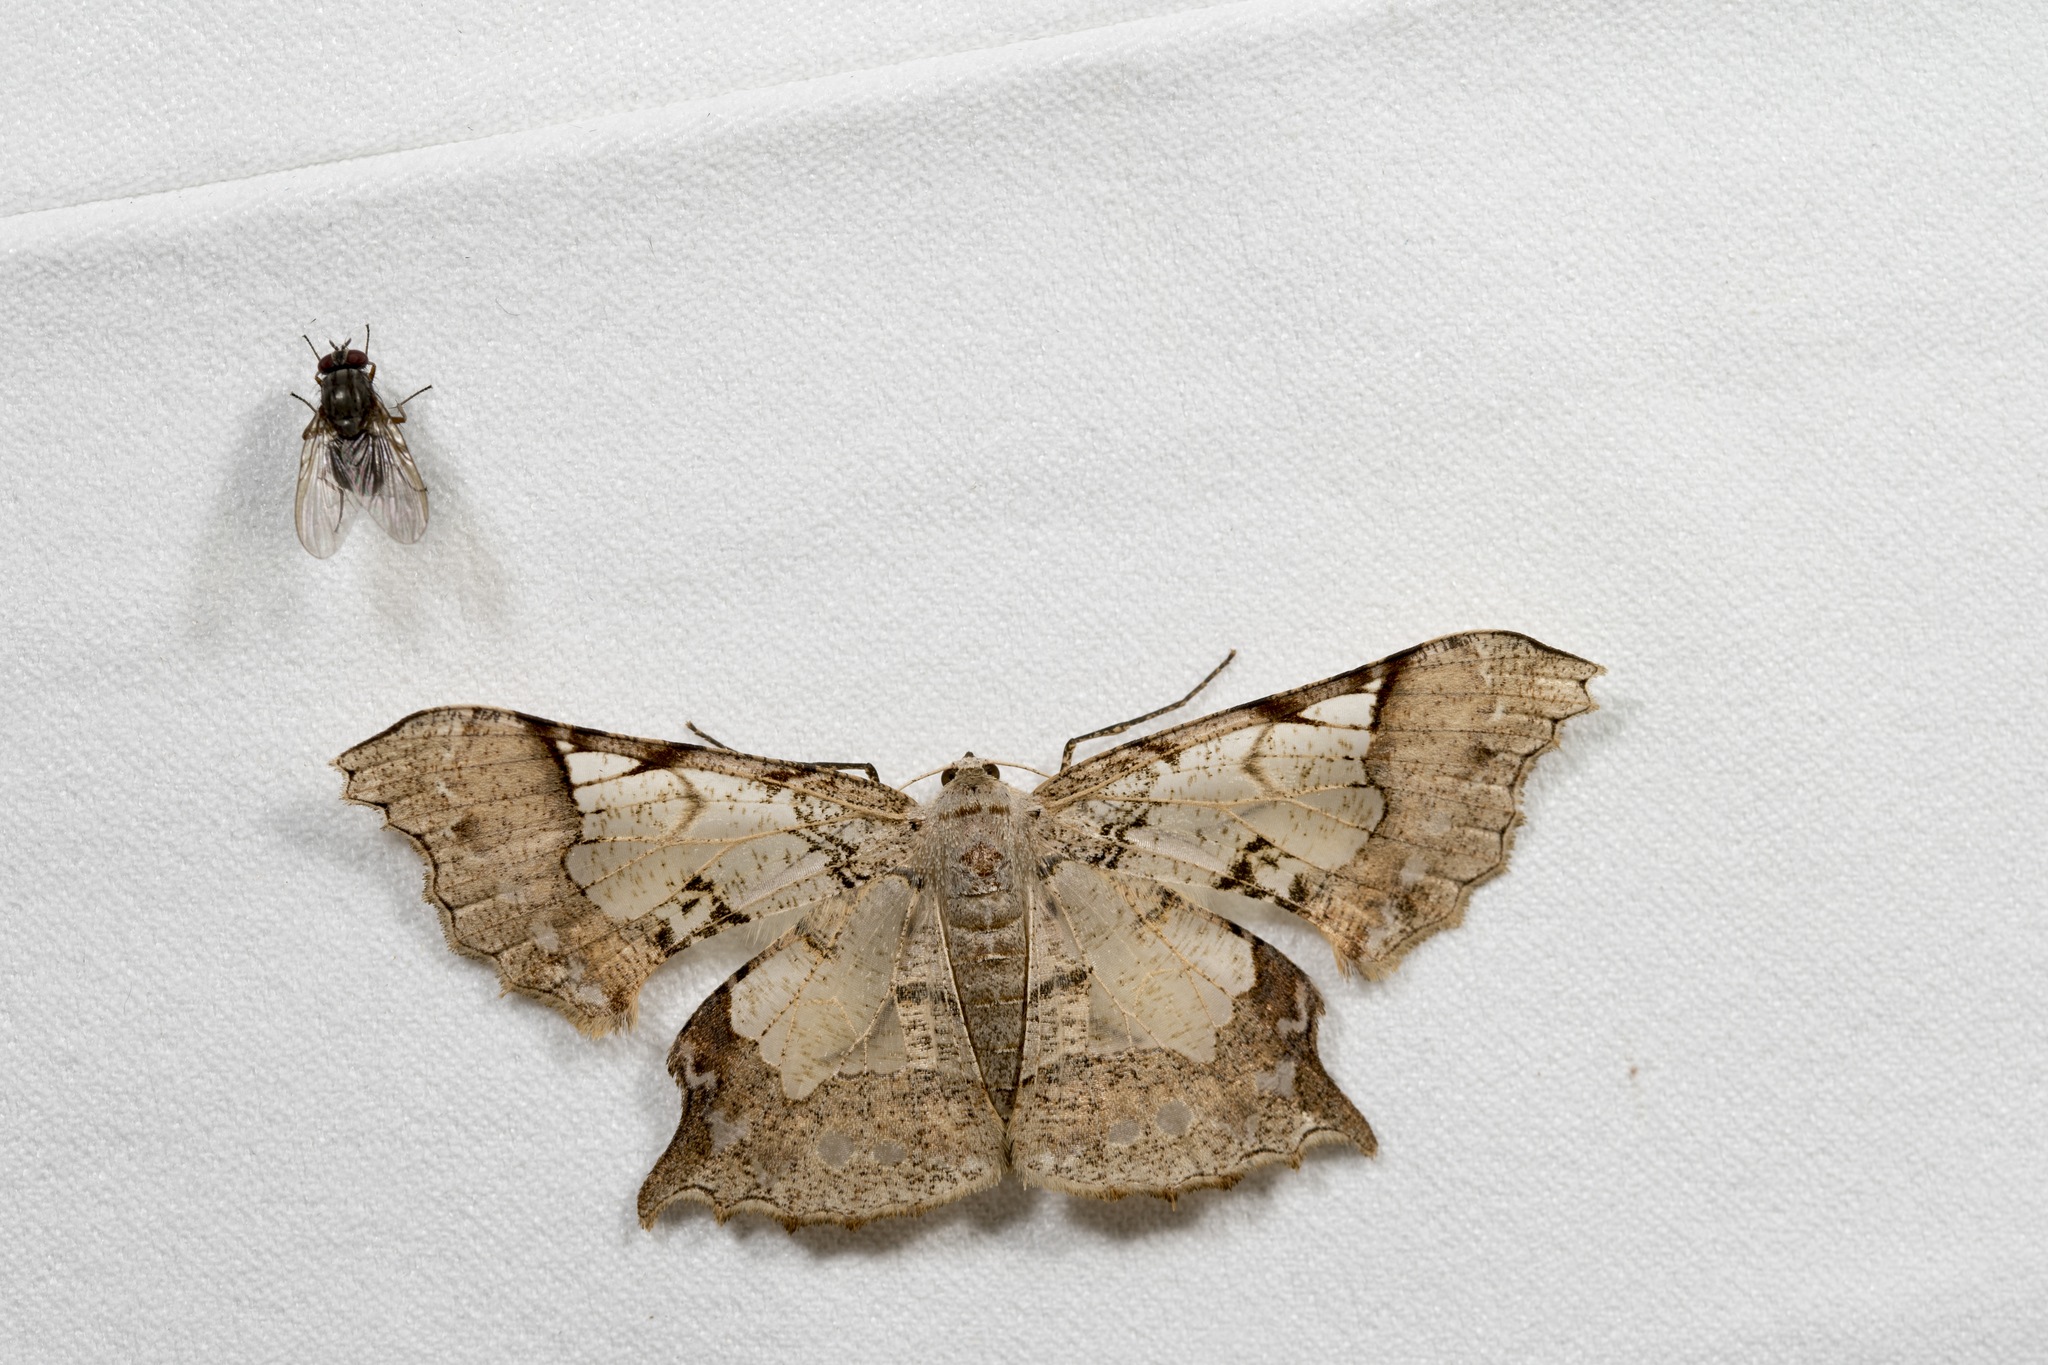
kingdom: Animalia
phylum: Arthropoda
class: Insecta
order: Lepidoptera
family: Geometridae
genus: Krananda
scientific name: Krananda semihyalina
